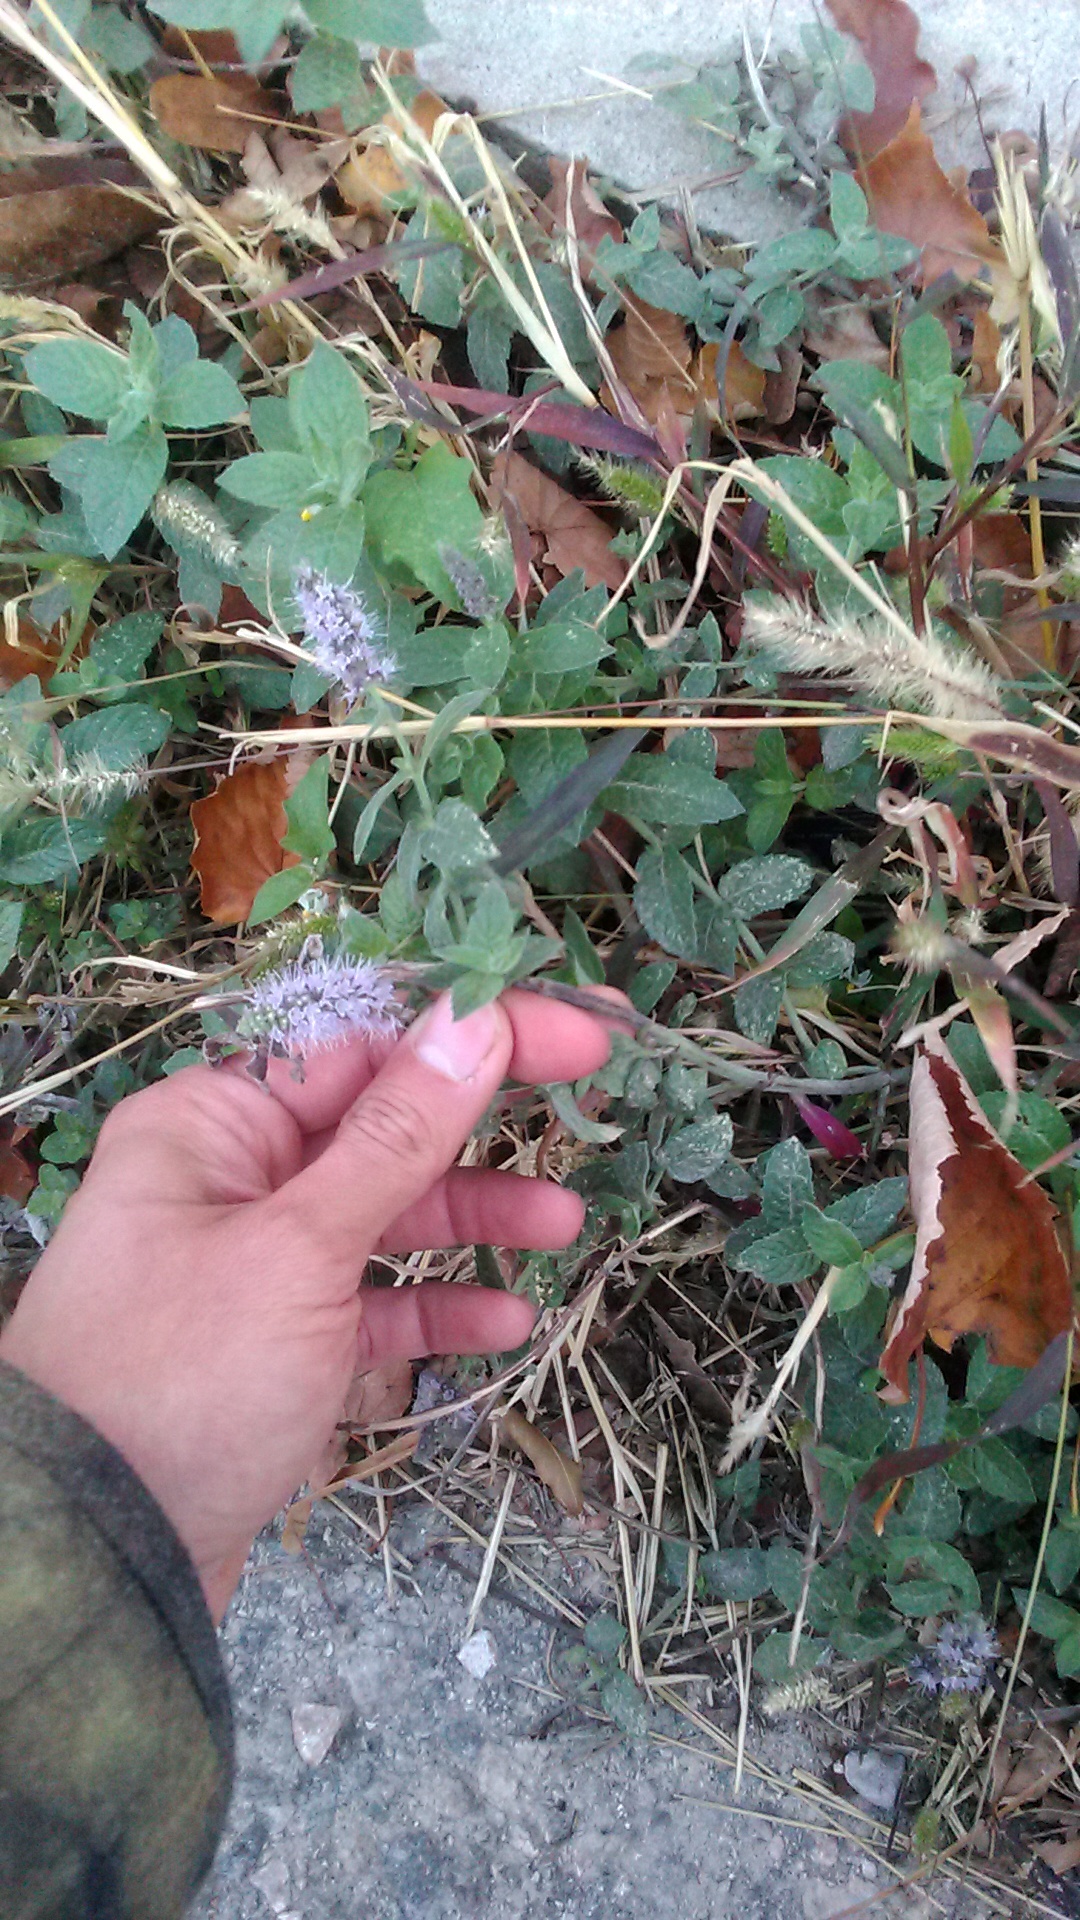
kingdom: Plantae
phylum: Tracheophyta
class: Magnoliopsida
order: Lamiales
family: Lamiaceae
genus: Mentha
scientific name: Mentha longifolia
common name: Horse mint
